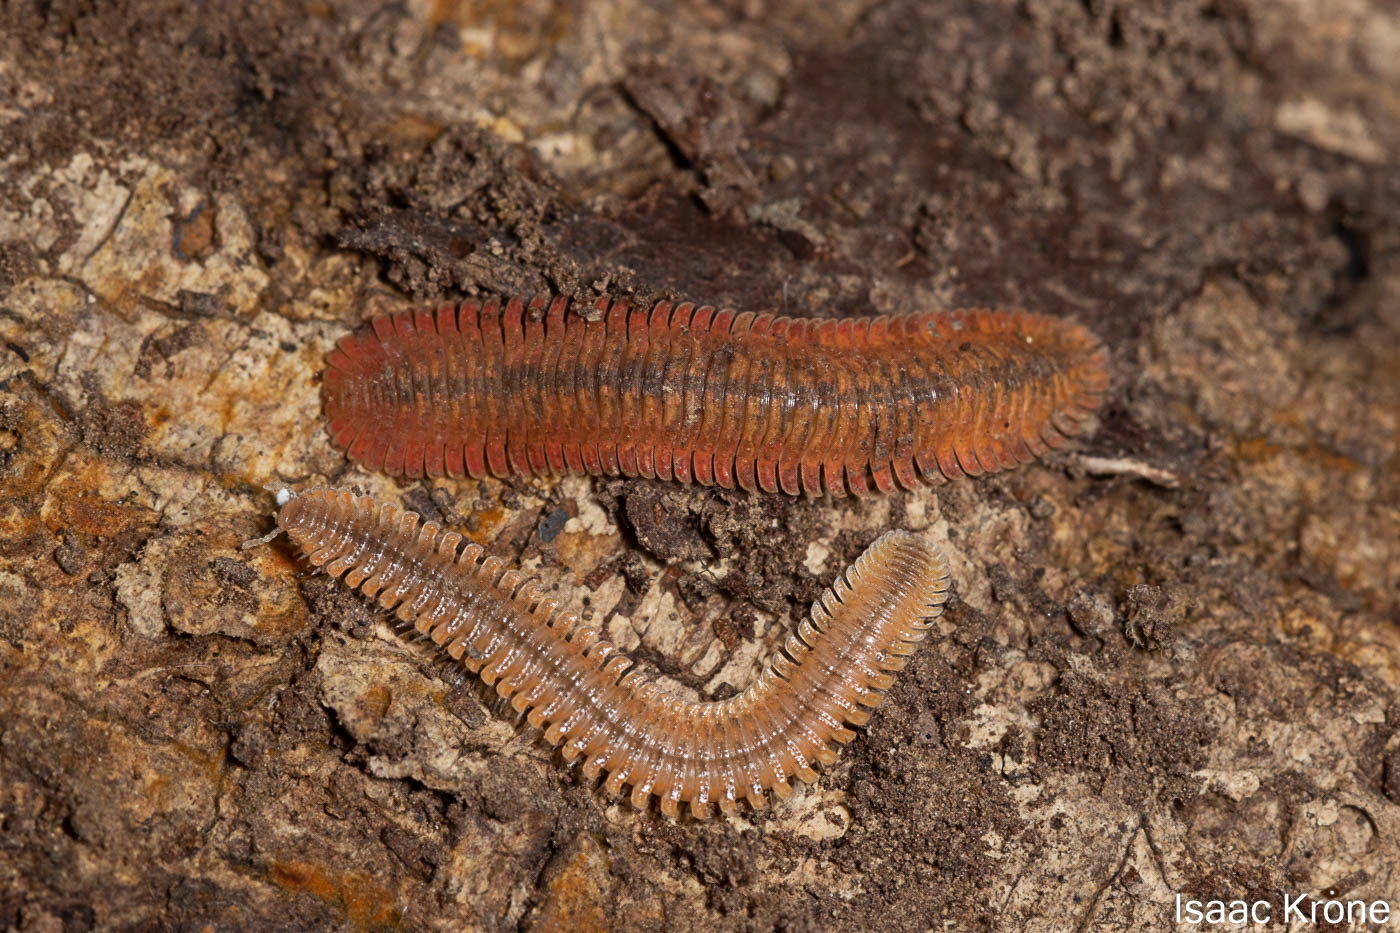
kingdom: Animalia
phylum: Arthropoda
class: Diplopoda
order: Platydesmida
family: Andrognathidae
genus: Brachycybe
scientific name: Brachycybe producta
